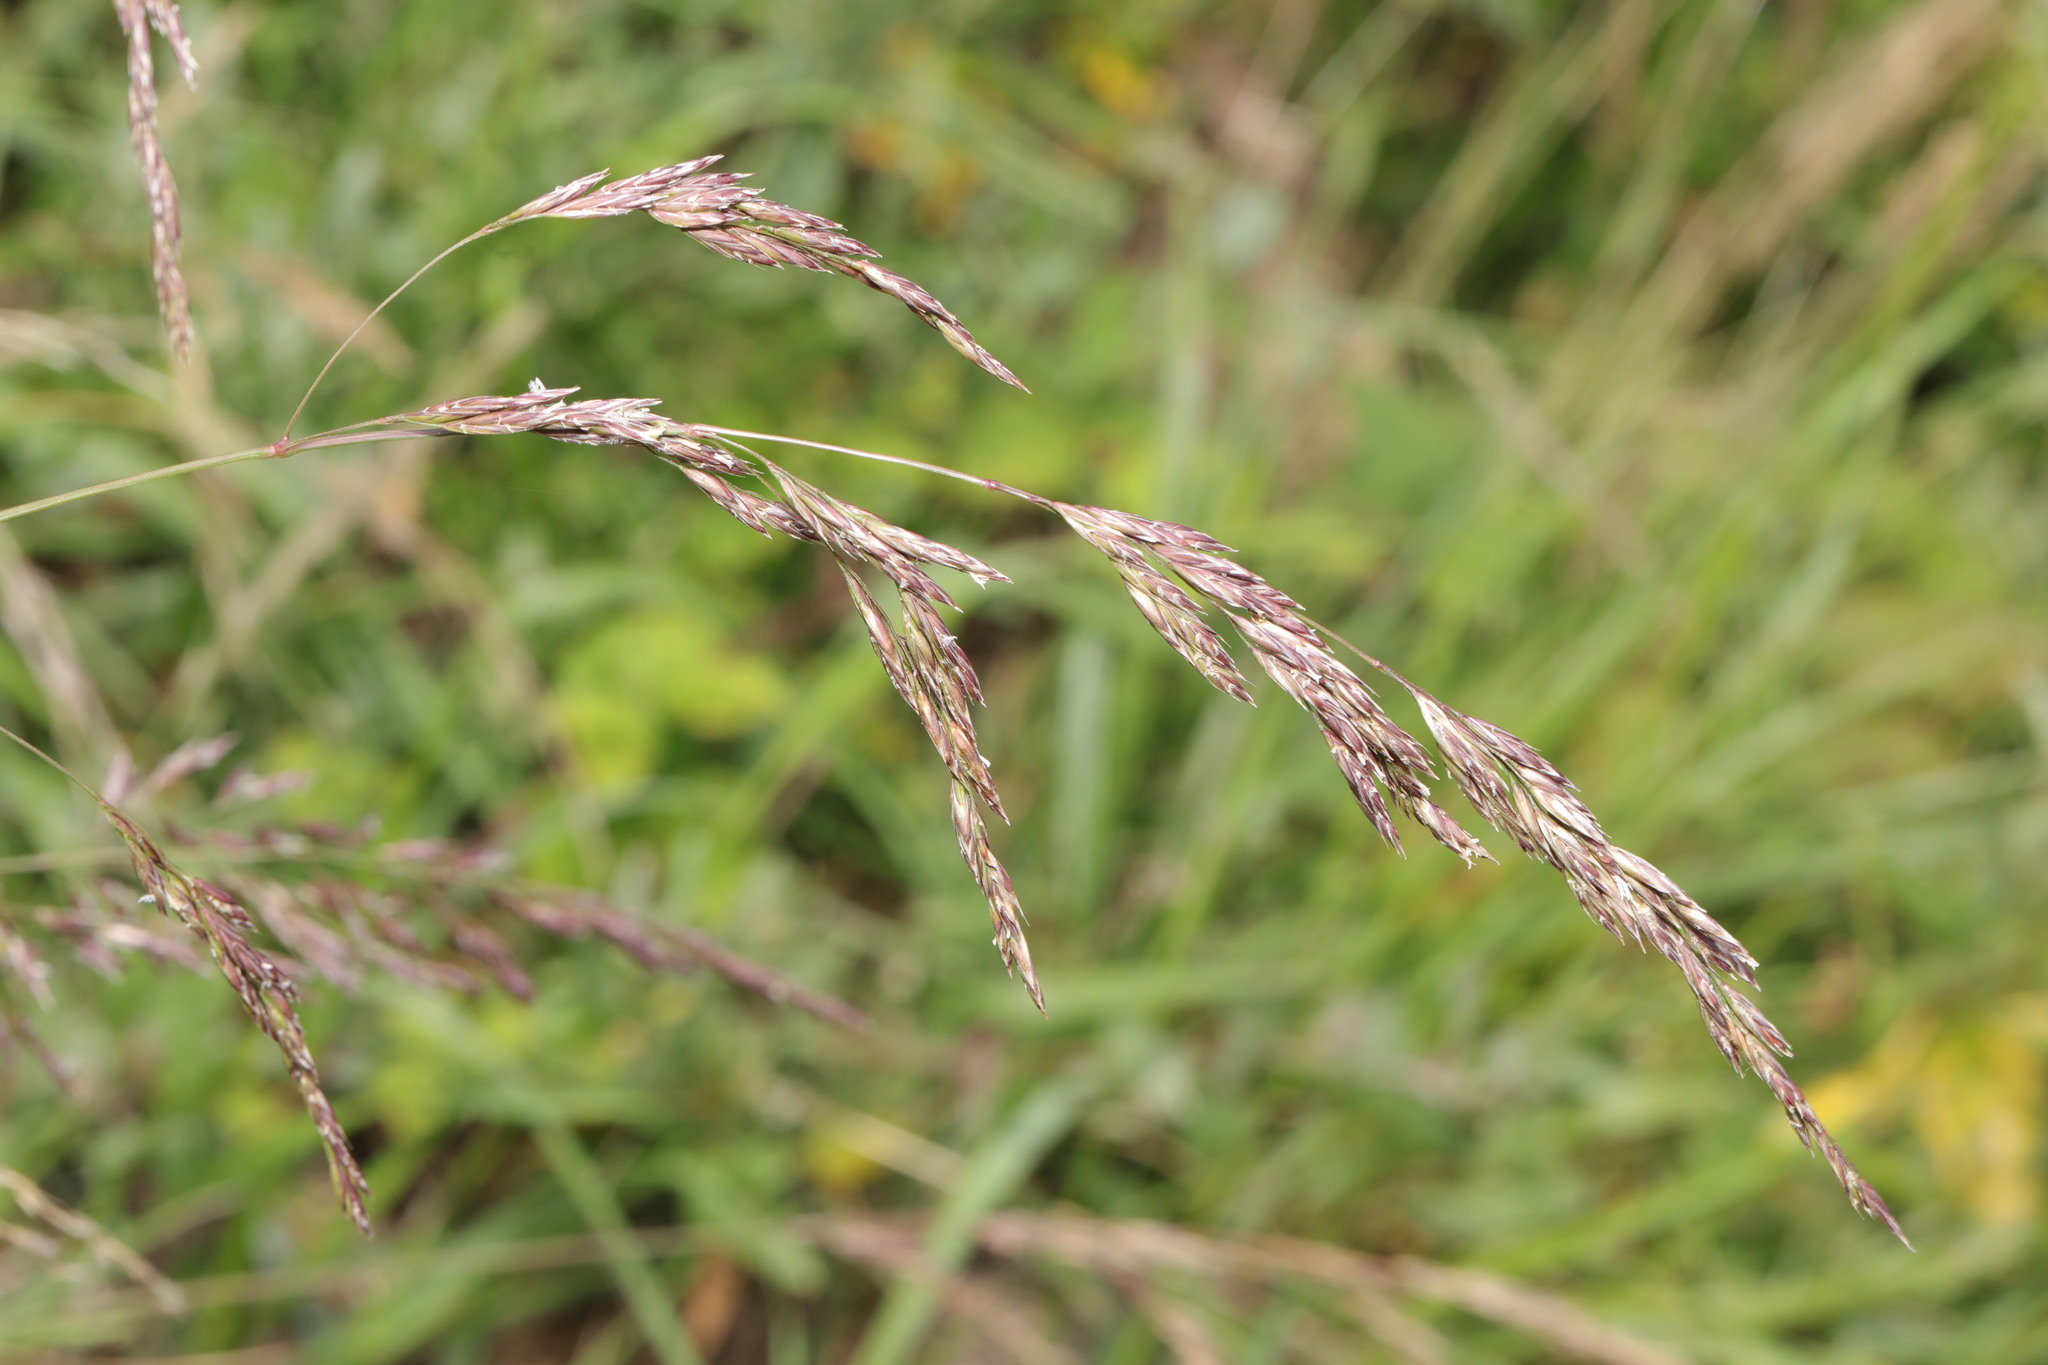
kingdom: Plantae
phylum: Tracheophyta
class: Liliopsida
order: Poales
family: Poaceae
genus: Festuca
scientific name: Festuca rubra
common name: Red fescue
